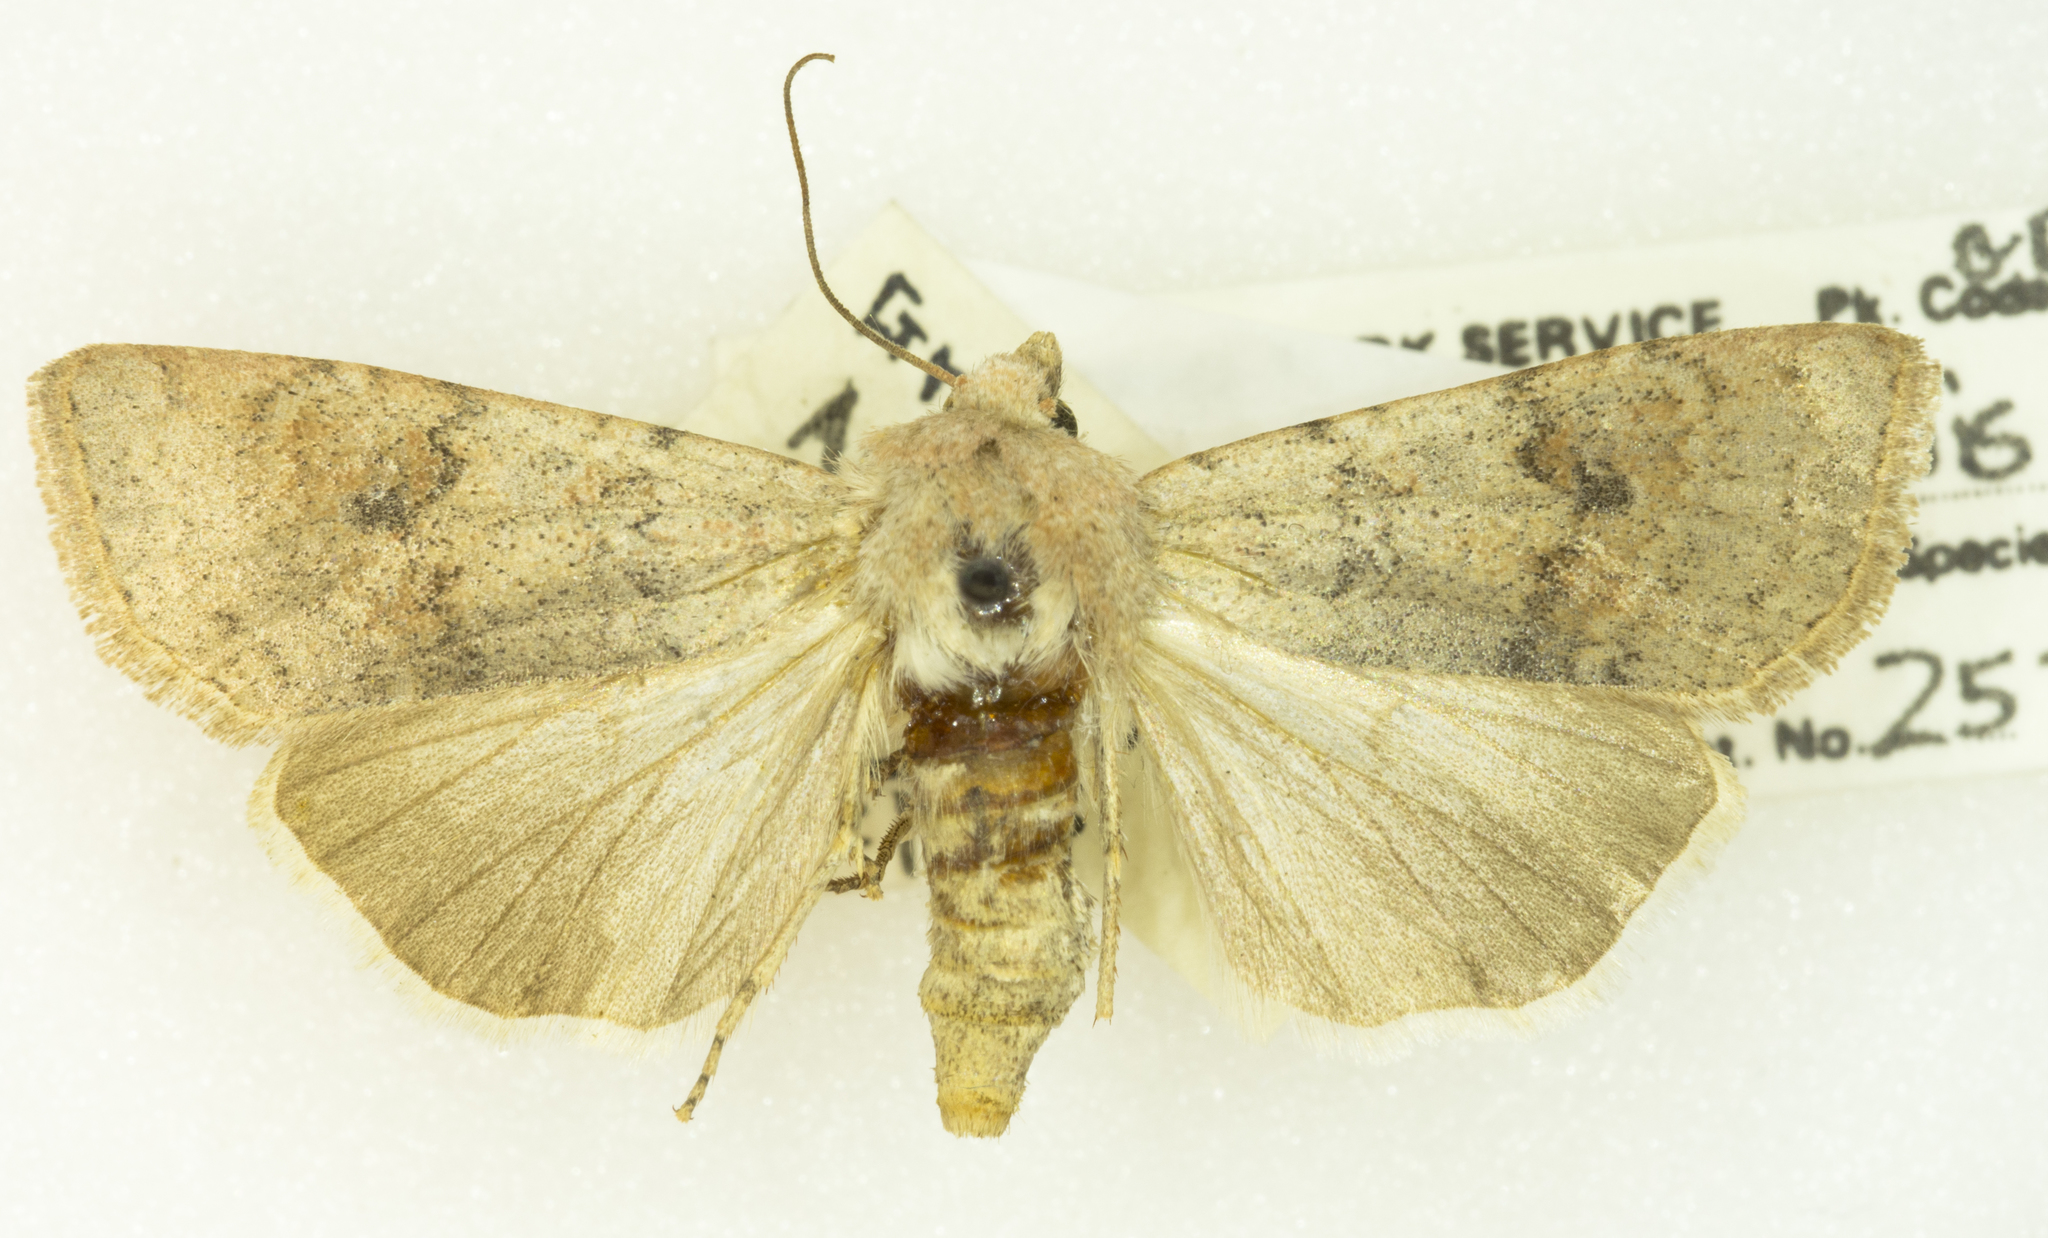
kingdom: Animalia
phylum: Arthropoda
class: Insecta
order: Lepidoptera
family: Noctuidae
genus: Euxoa
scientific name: Euxoa medialis
